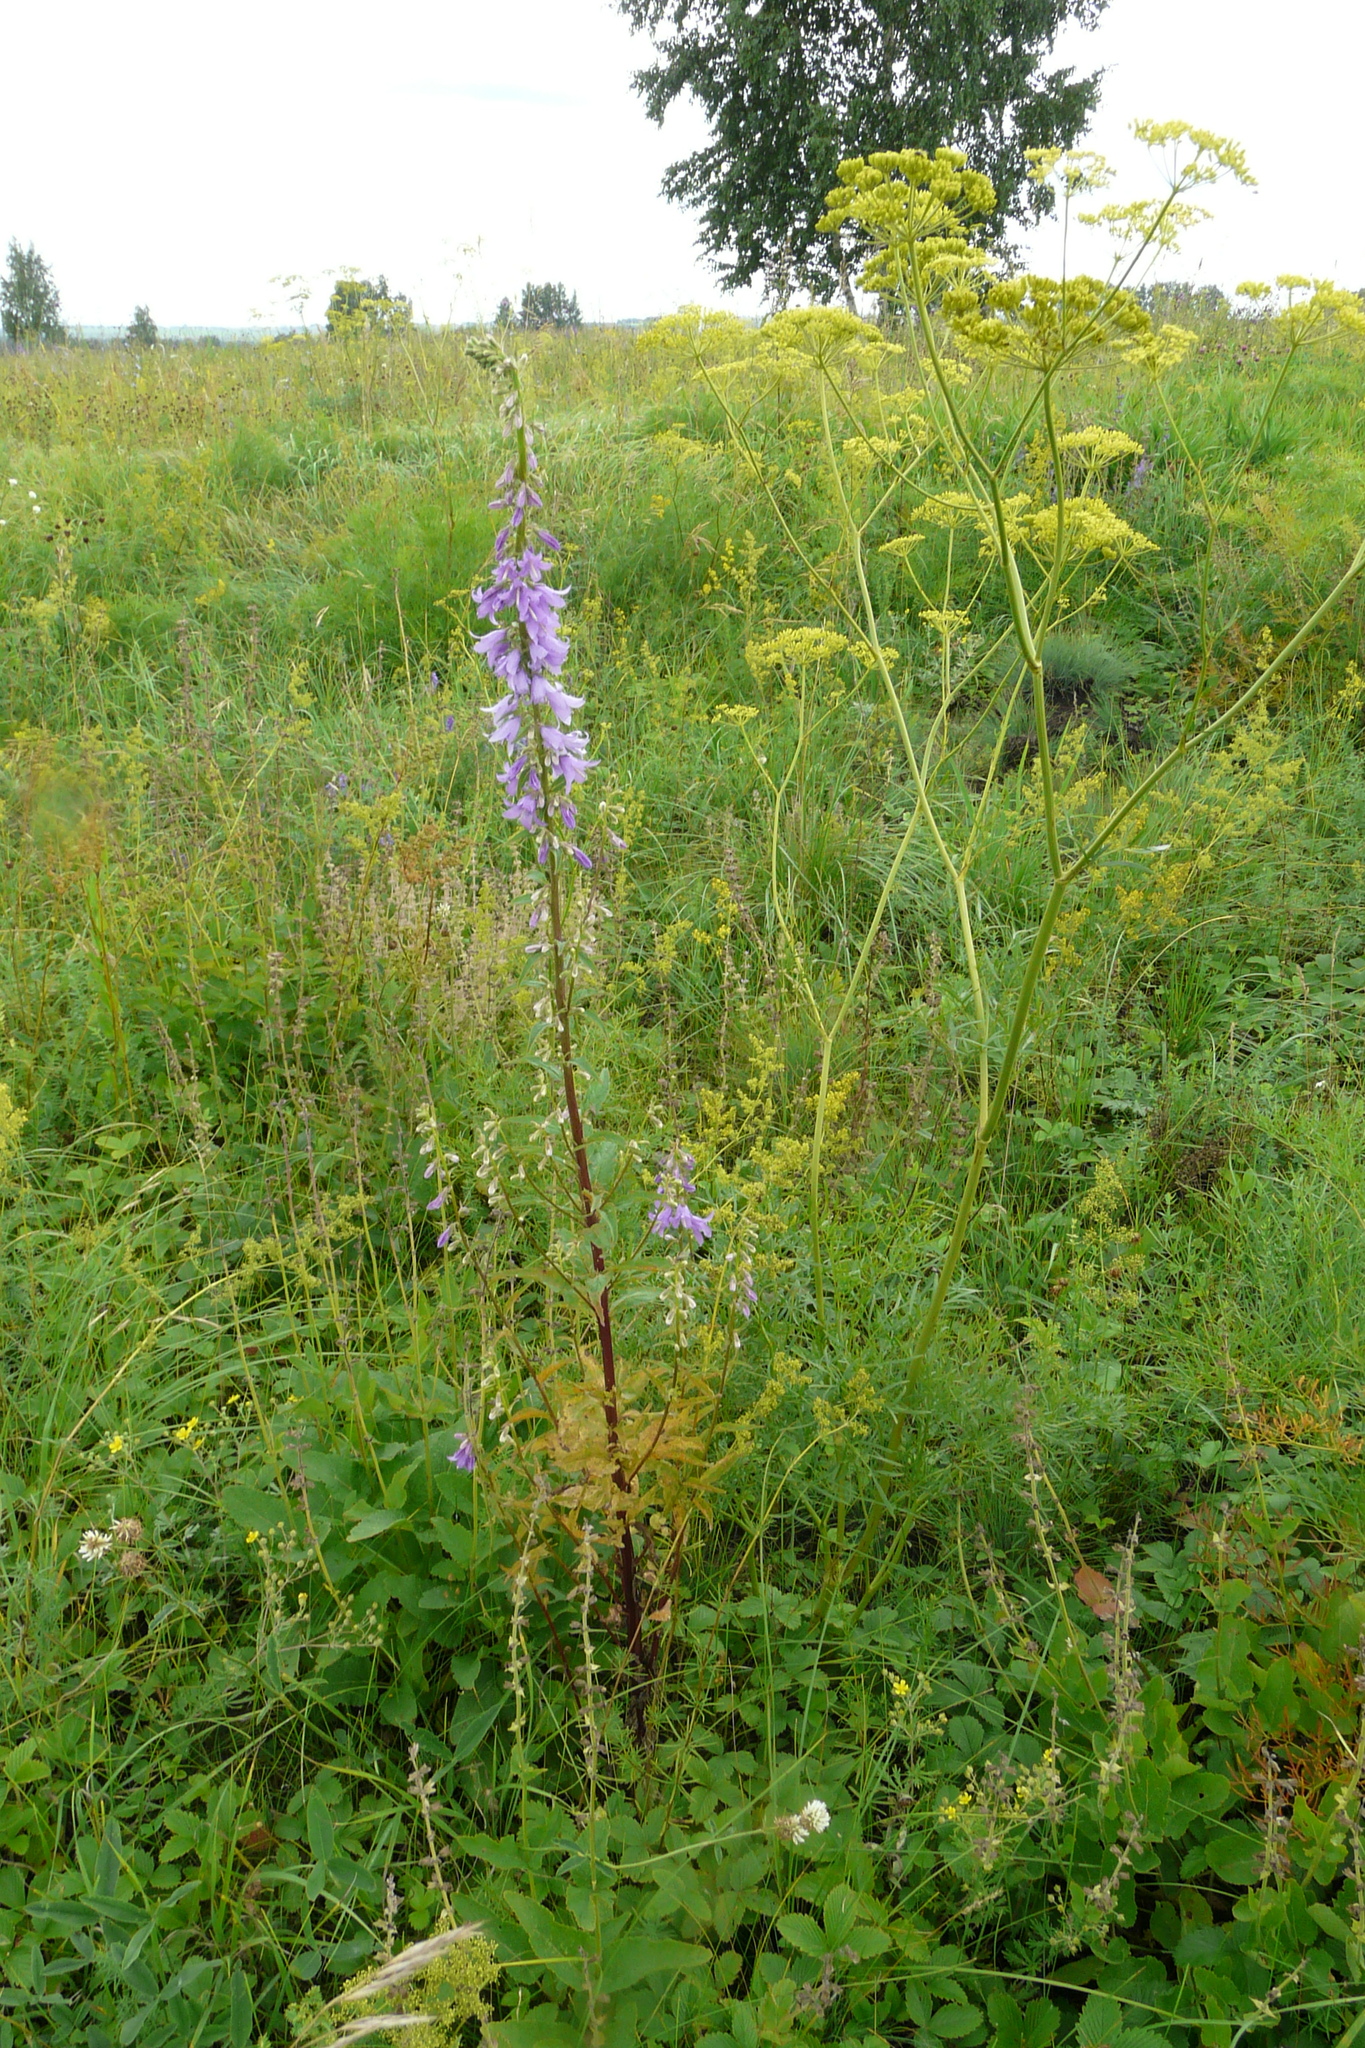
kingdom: Plantae
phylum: Tracheophyta
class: Magnoliopsida
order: Asterales
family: Campanulaceae
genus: Campanula
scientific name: Campanula rapunculoides
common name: Creeping bellflower
